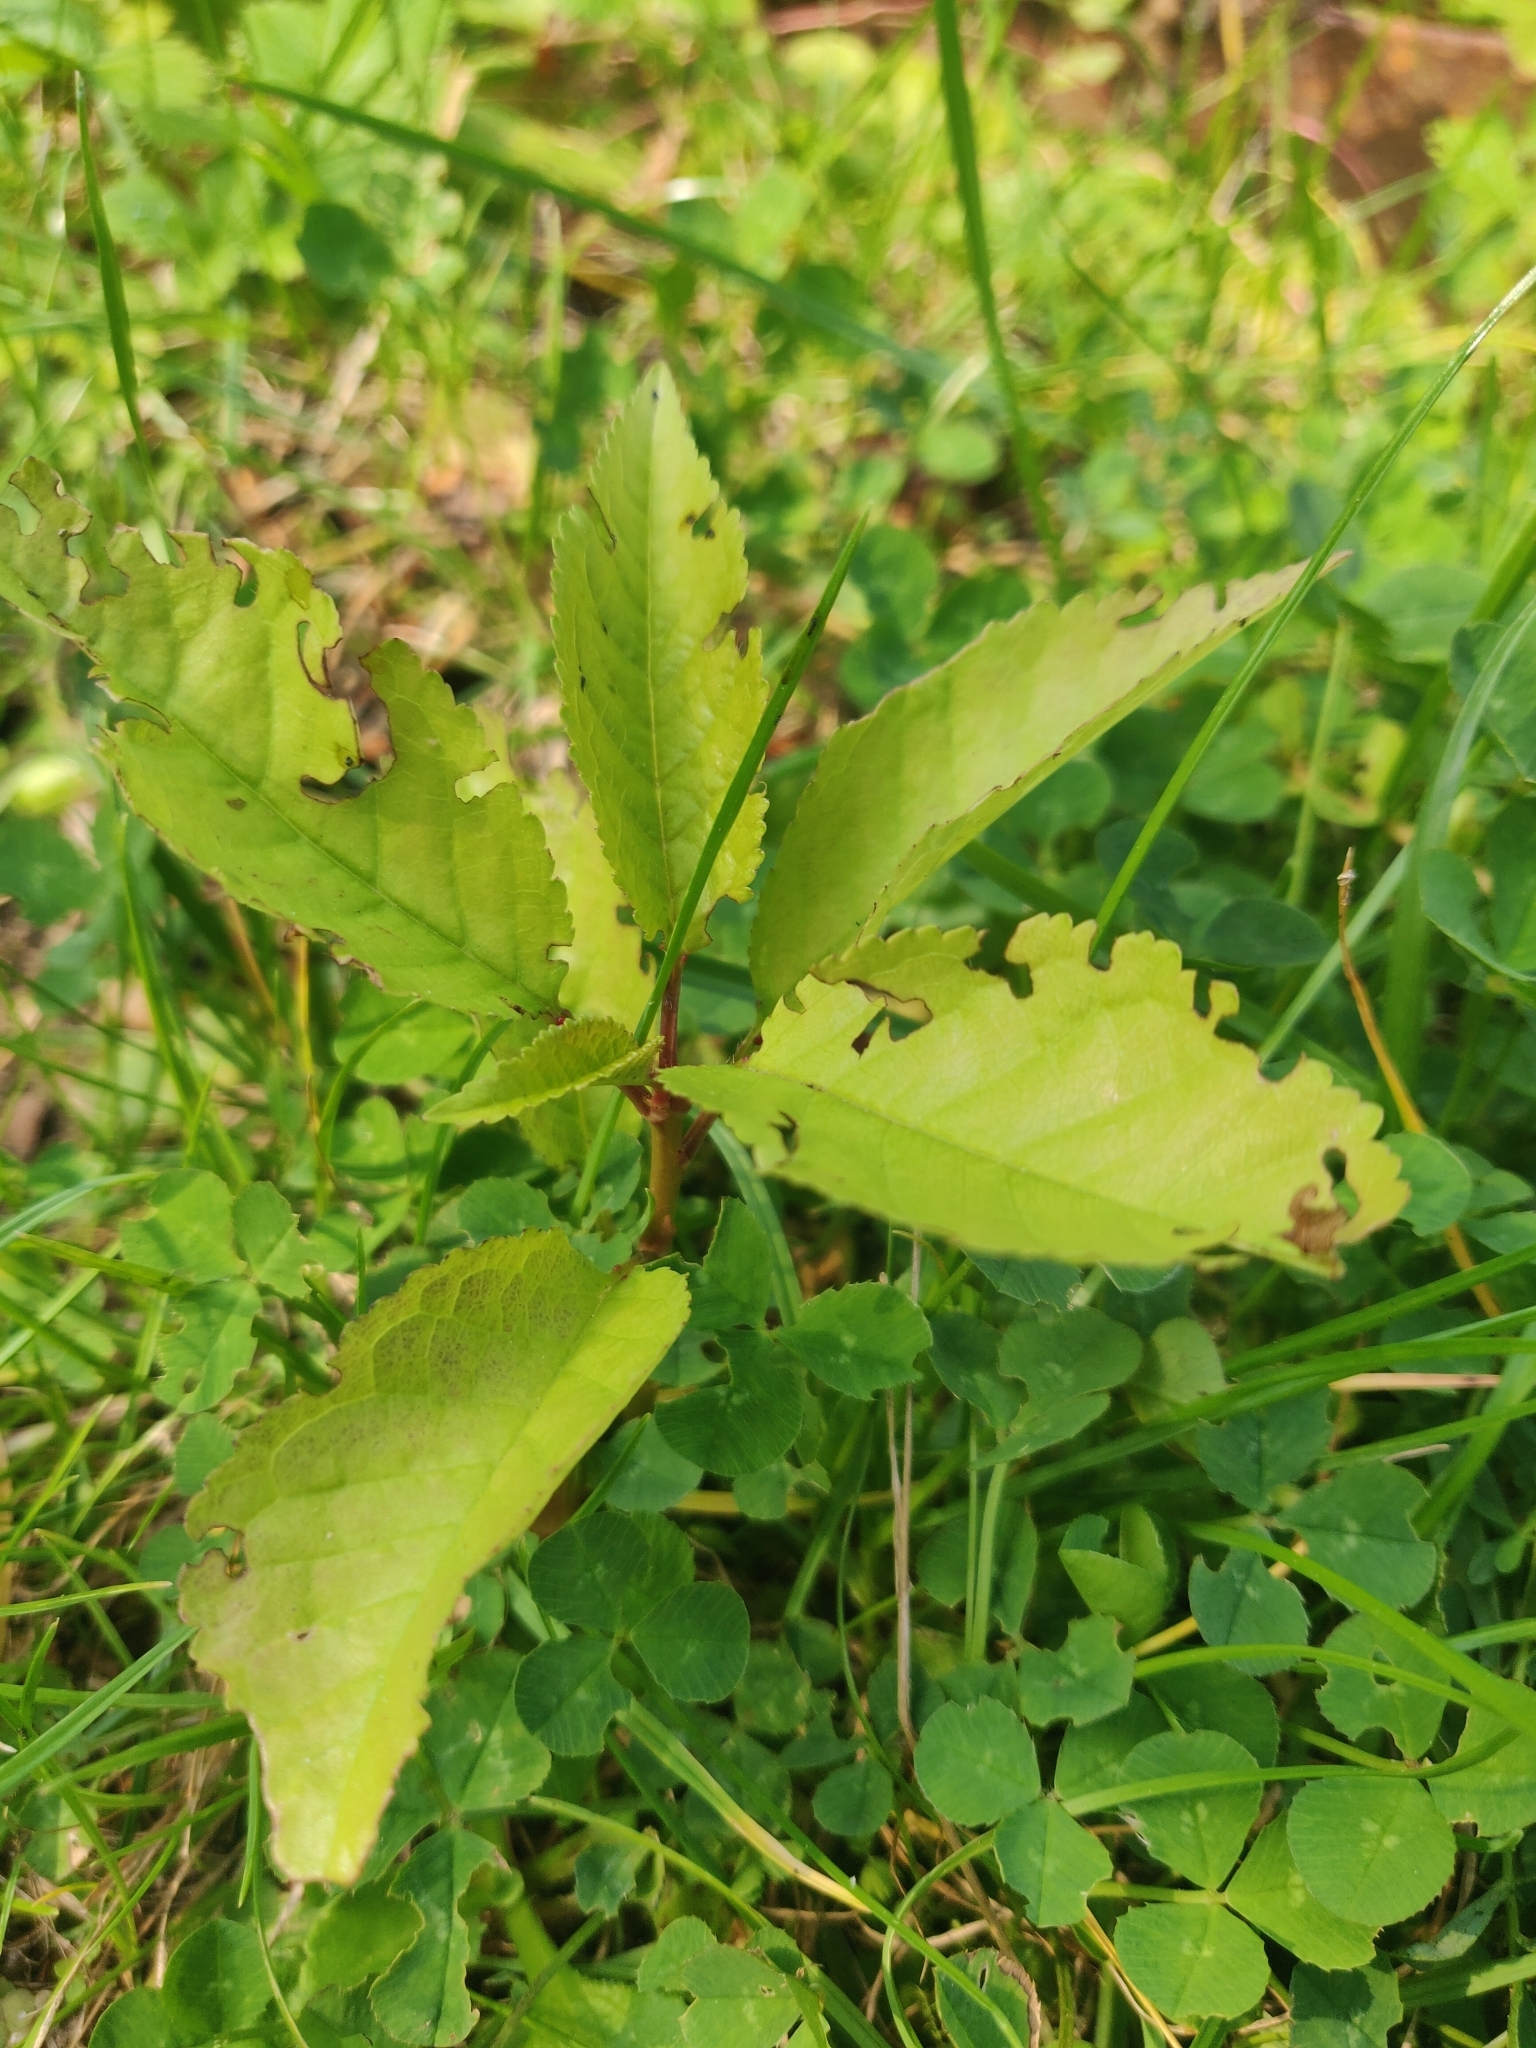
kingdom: Plantae
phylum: Tracheophyta
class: Magnoliopsida
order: Rosales
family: Rosaceae
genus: Prunus
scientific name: Prunus avium
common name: Sweet cherry
